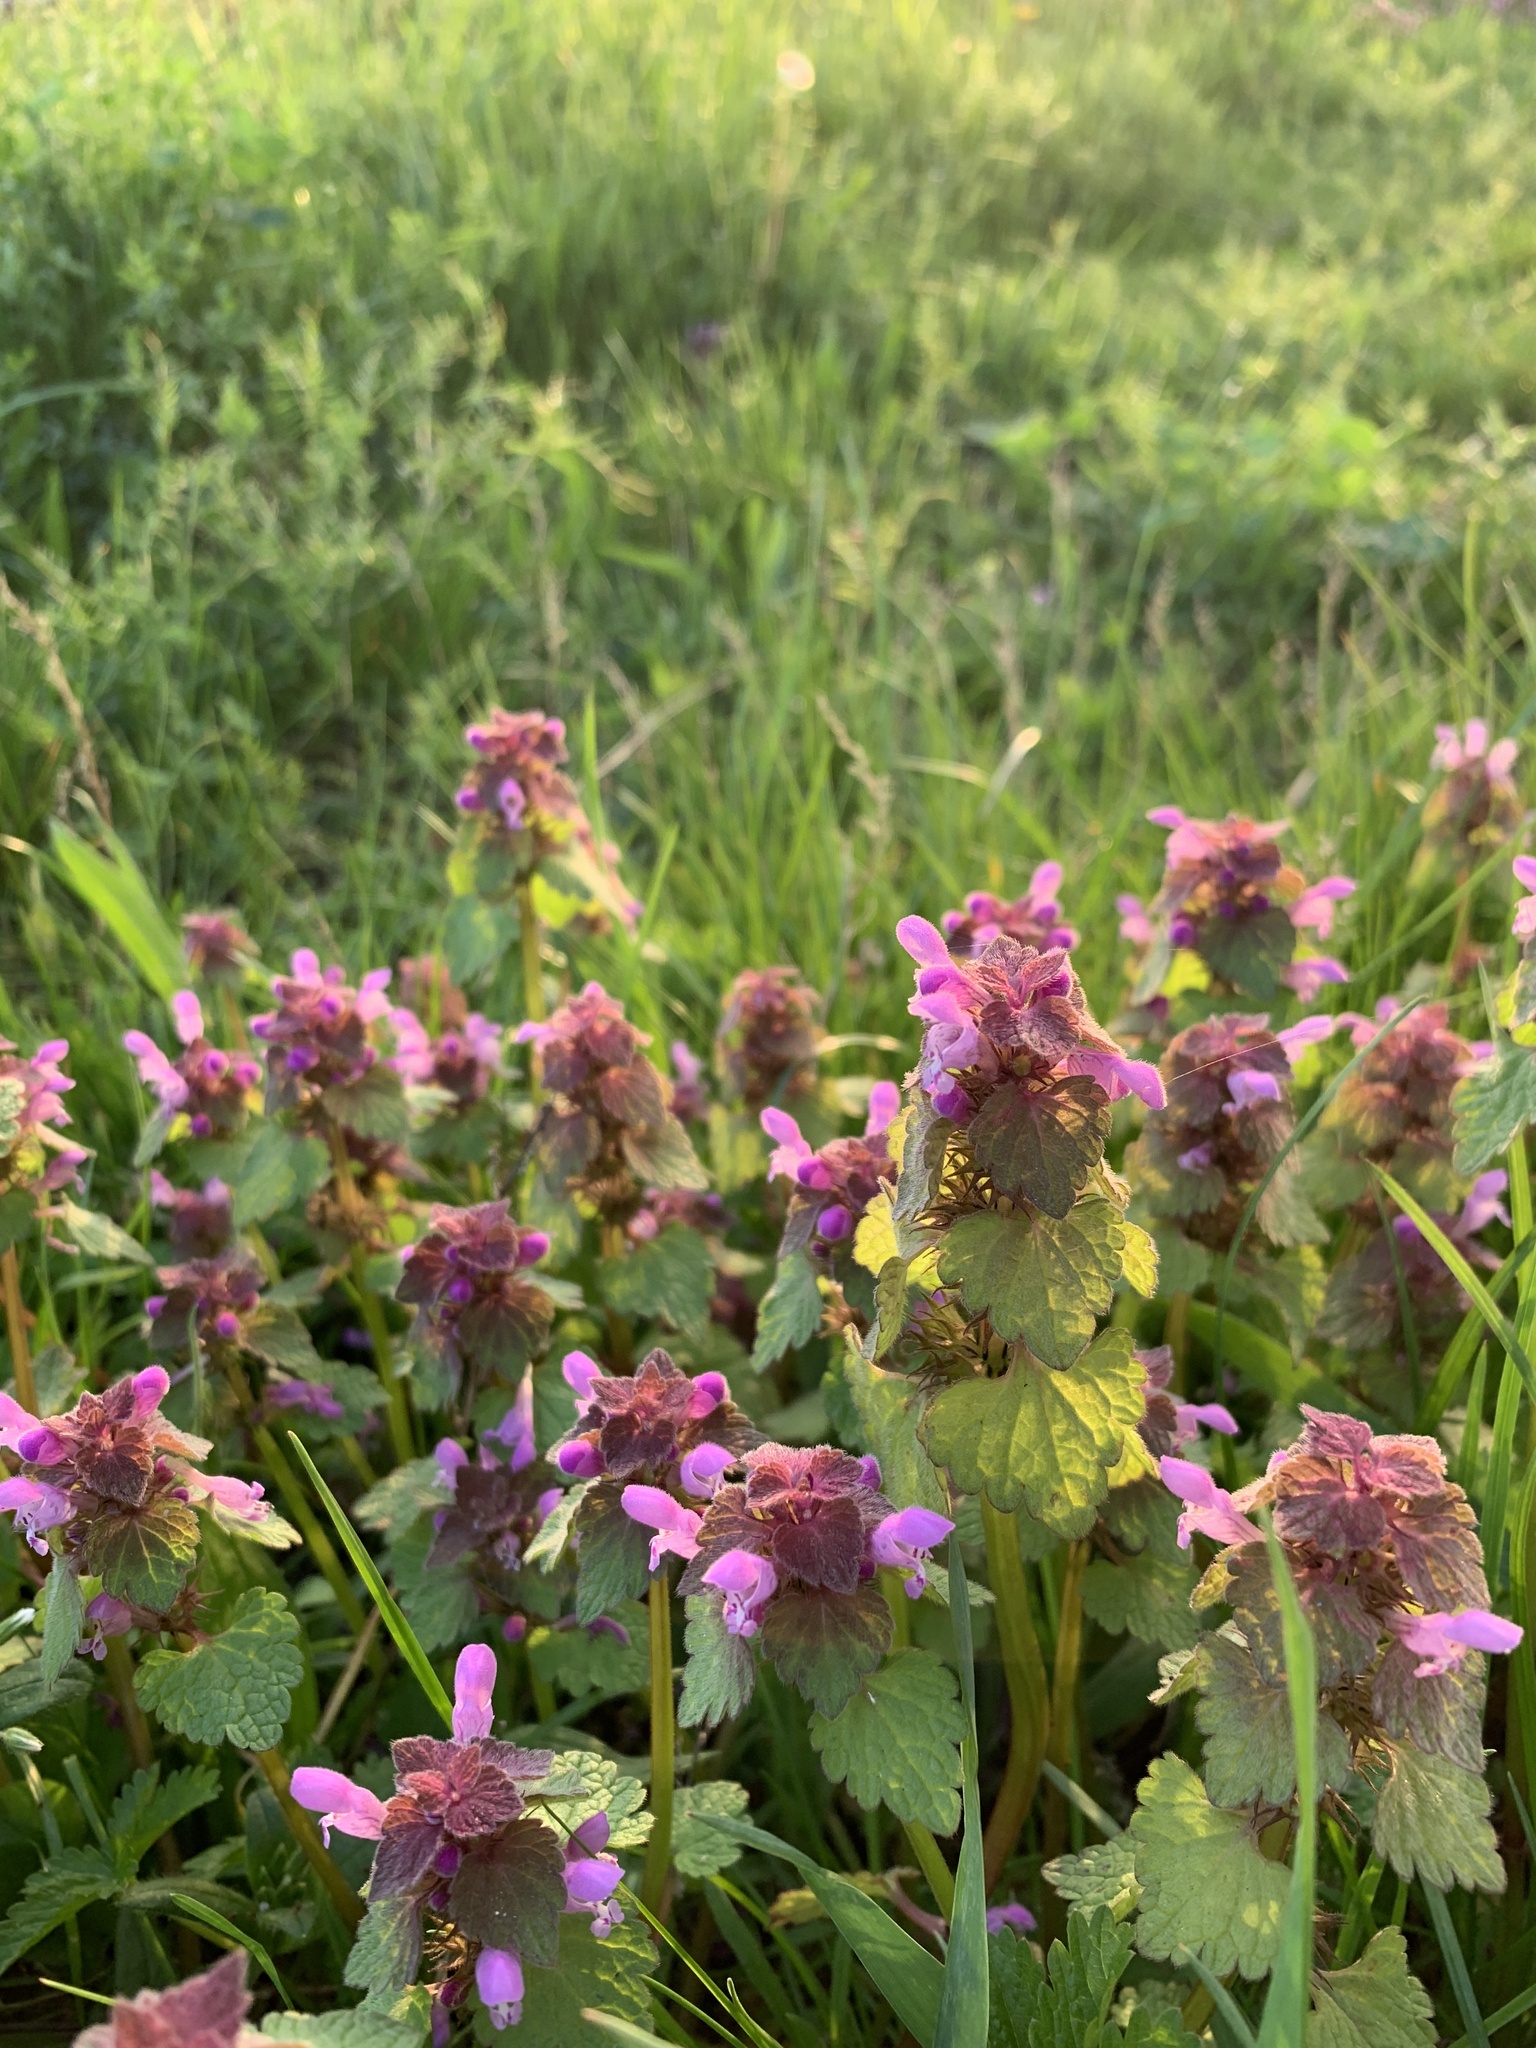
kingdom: Plantae
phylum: Tracheophyta
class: Magnoliopsida
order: Lamiales
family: Lamiaceae
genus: Lamium
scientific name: Lamium purpureum
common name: Red dead-nettle
